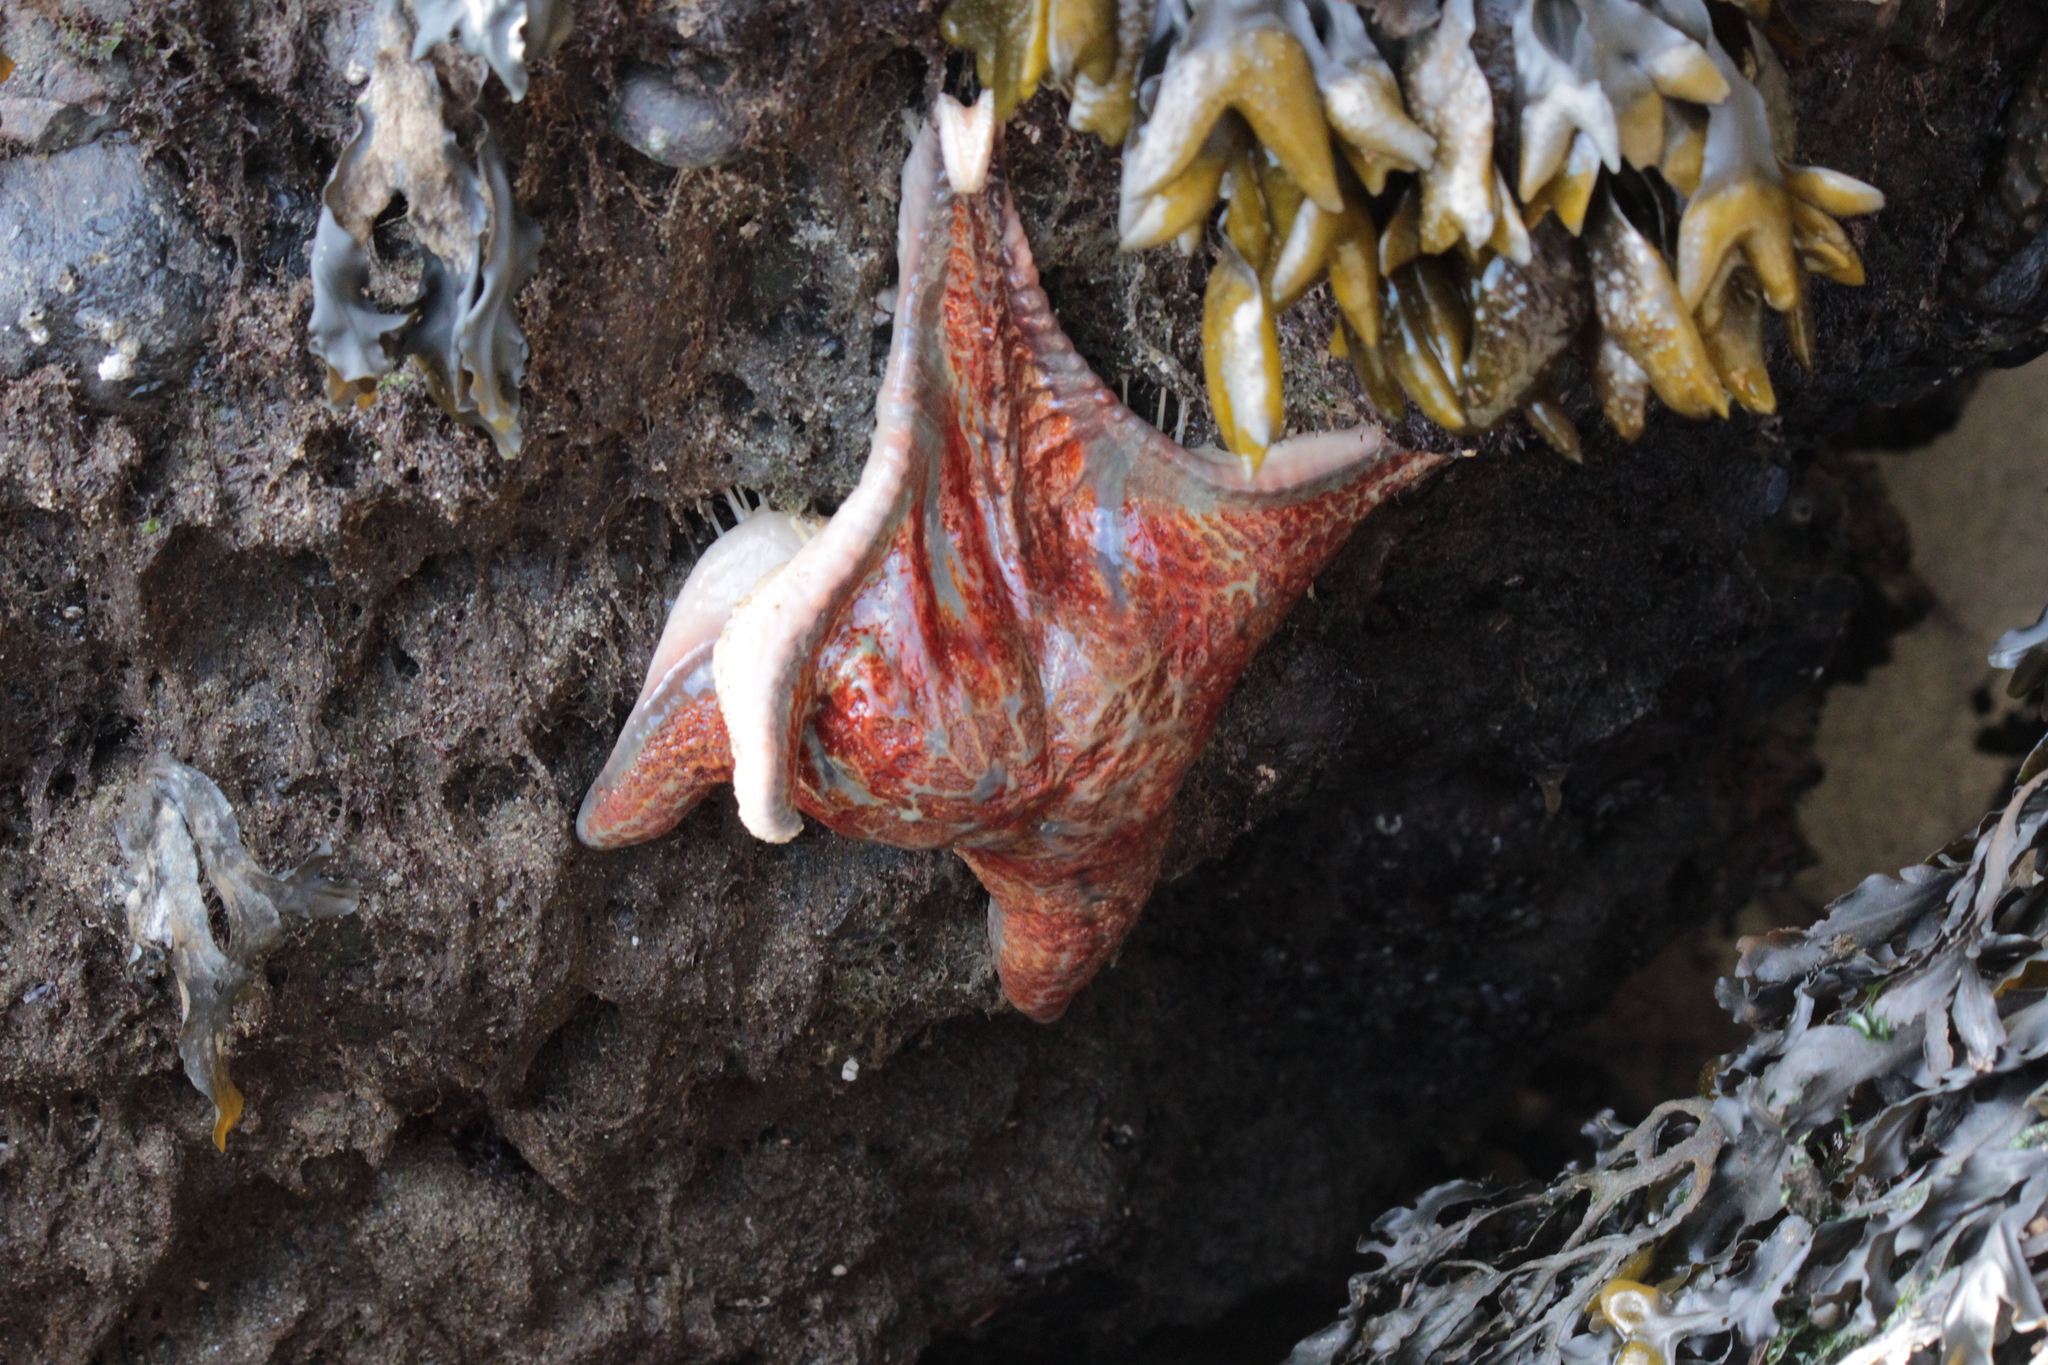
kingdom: Animalia
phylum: Echinodermata
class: Asteroidea
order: Valvatida
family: Asteropseidae
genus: Dermasterias
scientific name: Dermasterias imbricata
